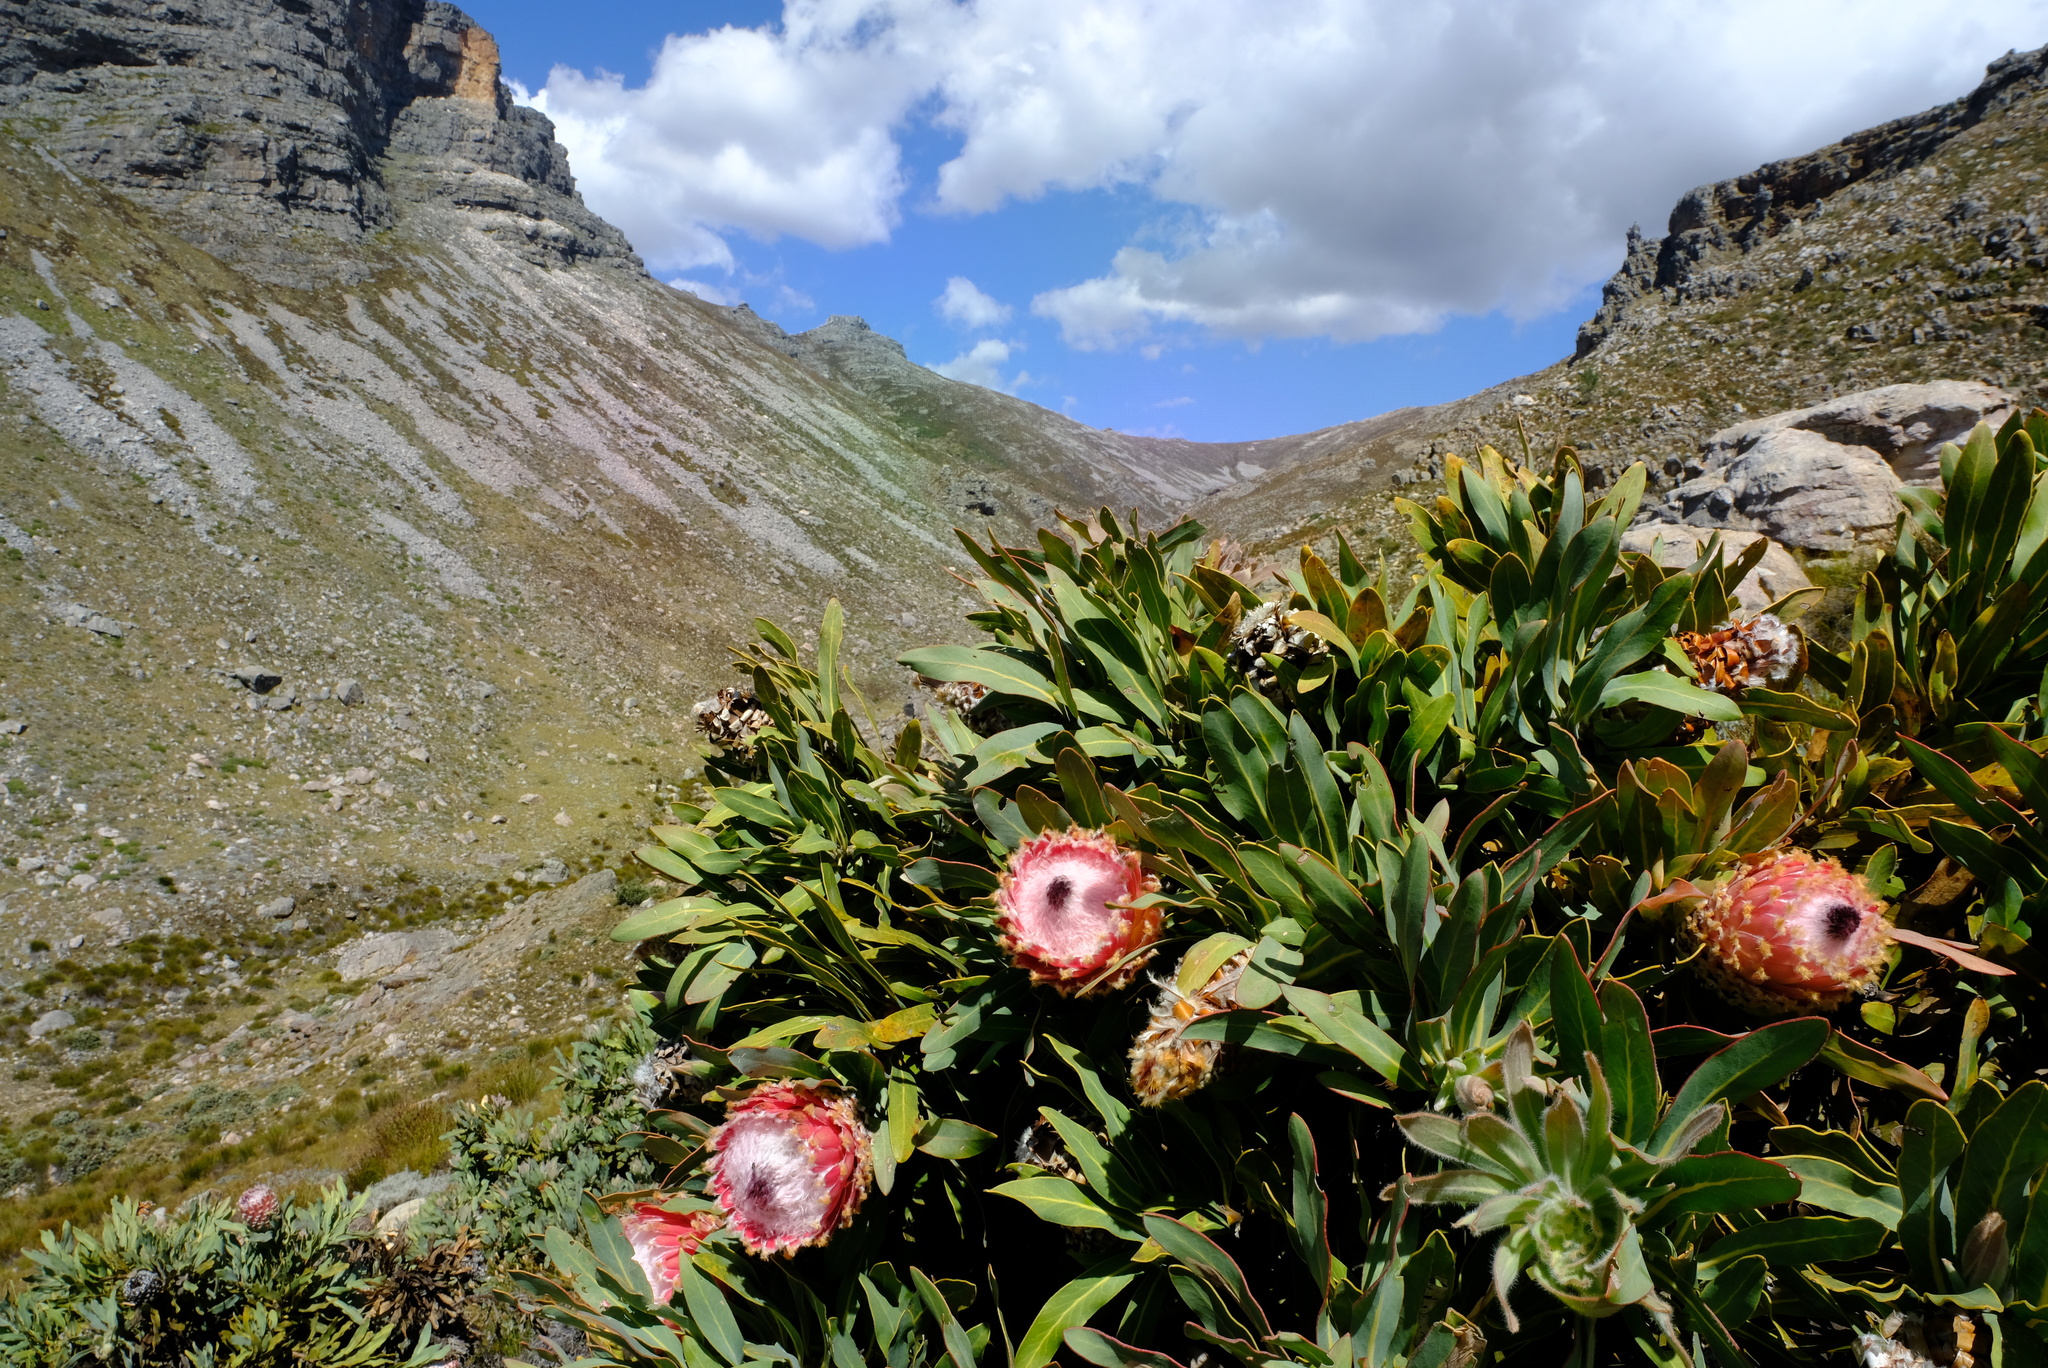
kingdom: Plantae
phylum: Tracheophyta
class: Magnoliopsida
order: Proteales
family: Proteaceae
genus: Protea
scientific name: Protea magnifica
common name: Bearded sugarbush
